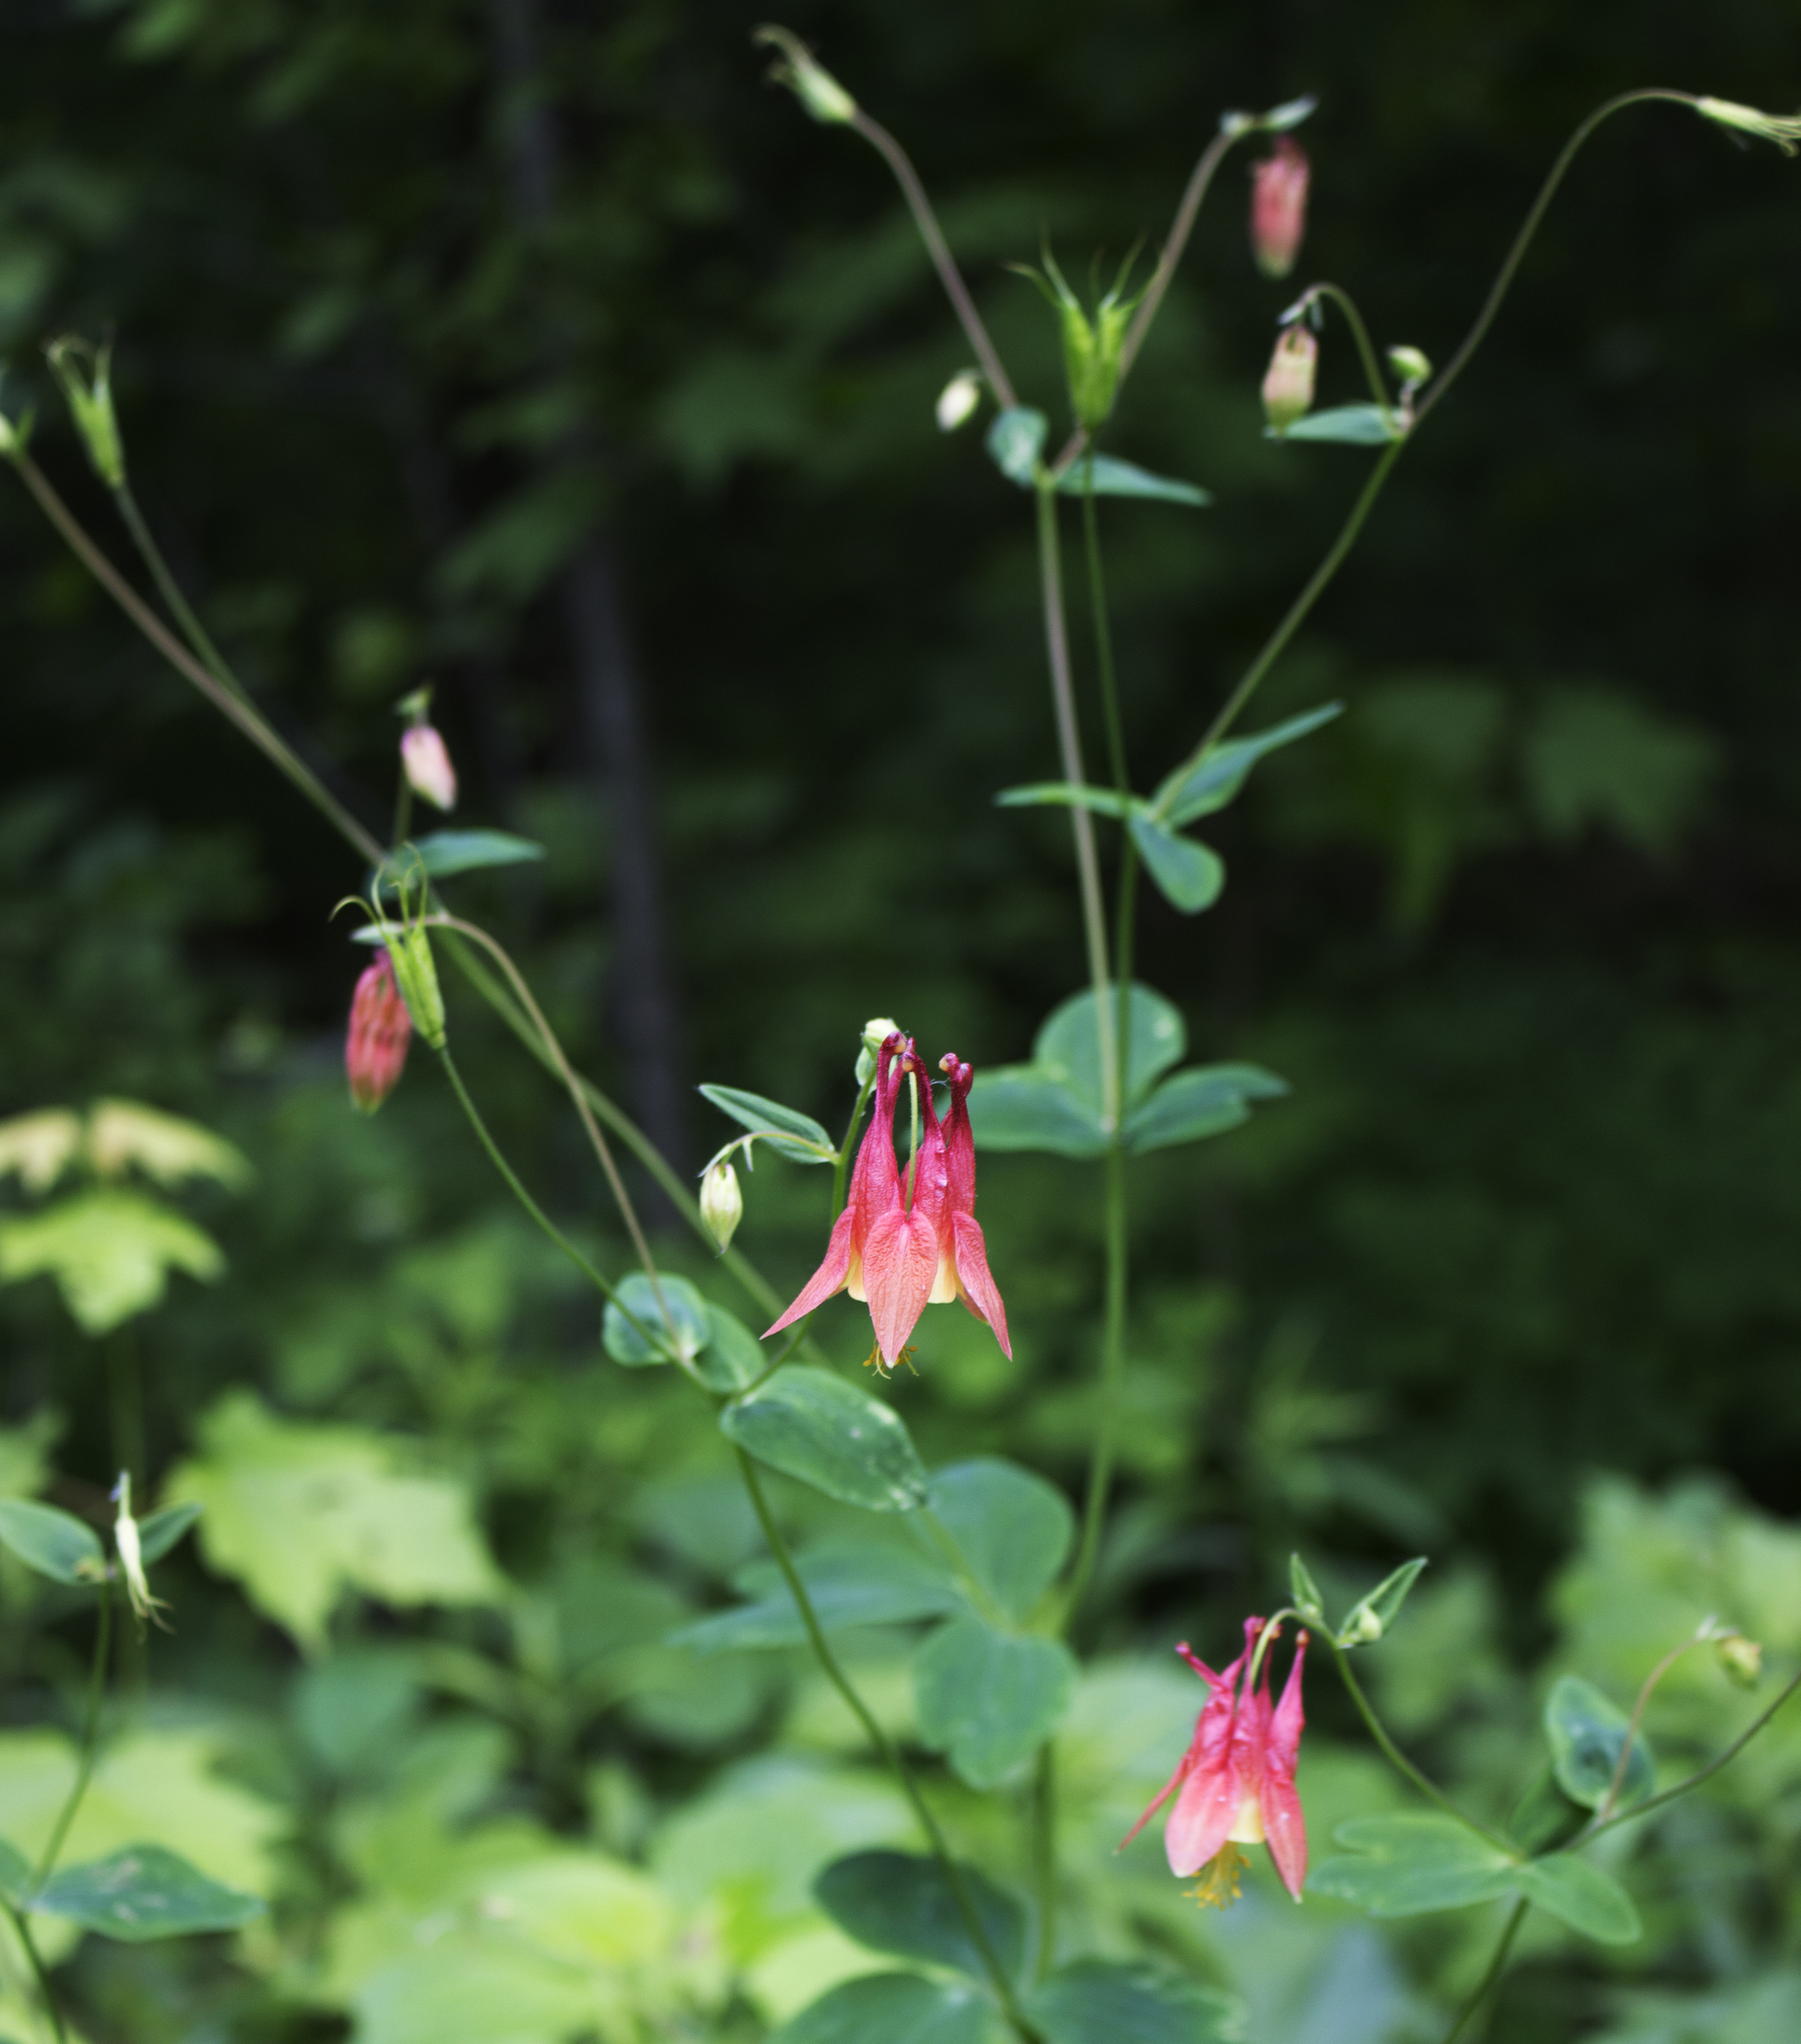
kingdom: Plantae
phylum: Tracheophyta
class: Magnoliopsida
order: Ranunculales
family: Ranunculaceae
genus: Aquilegia
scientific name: Aquilegia canadensis
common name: American columbine
